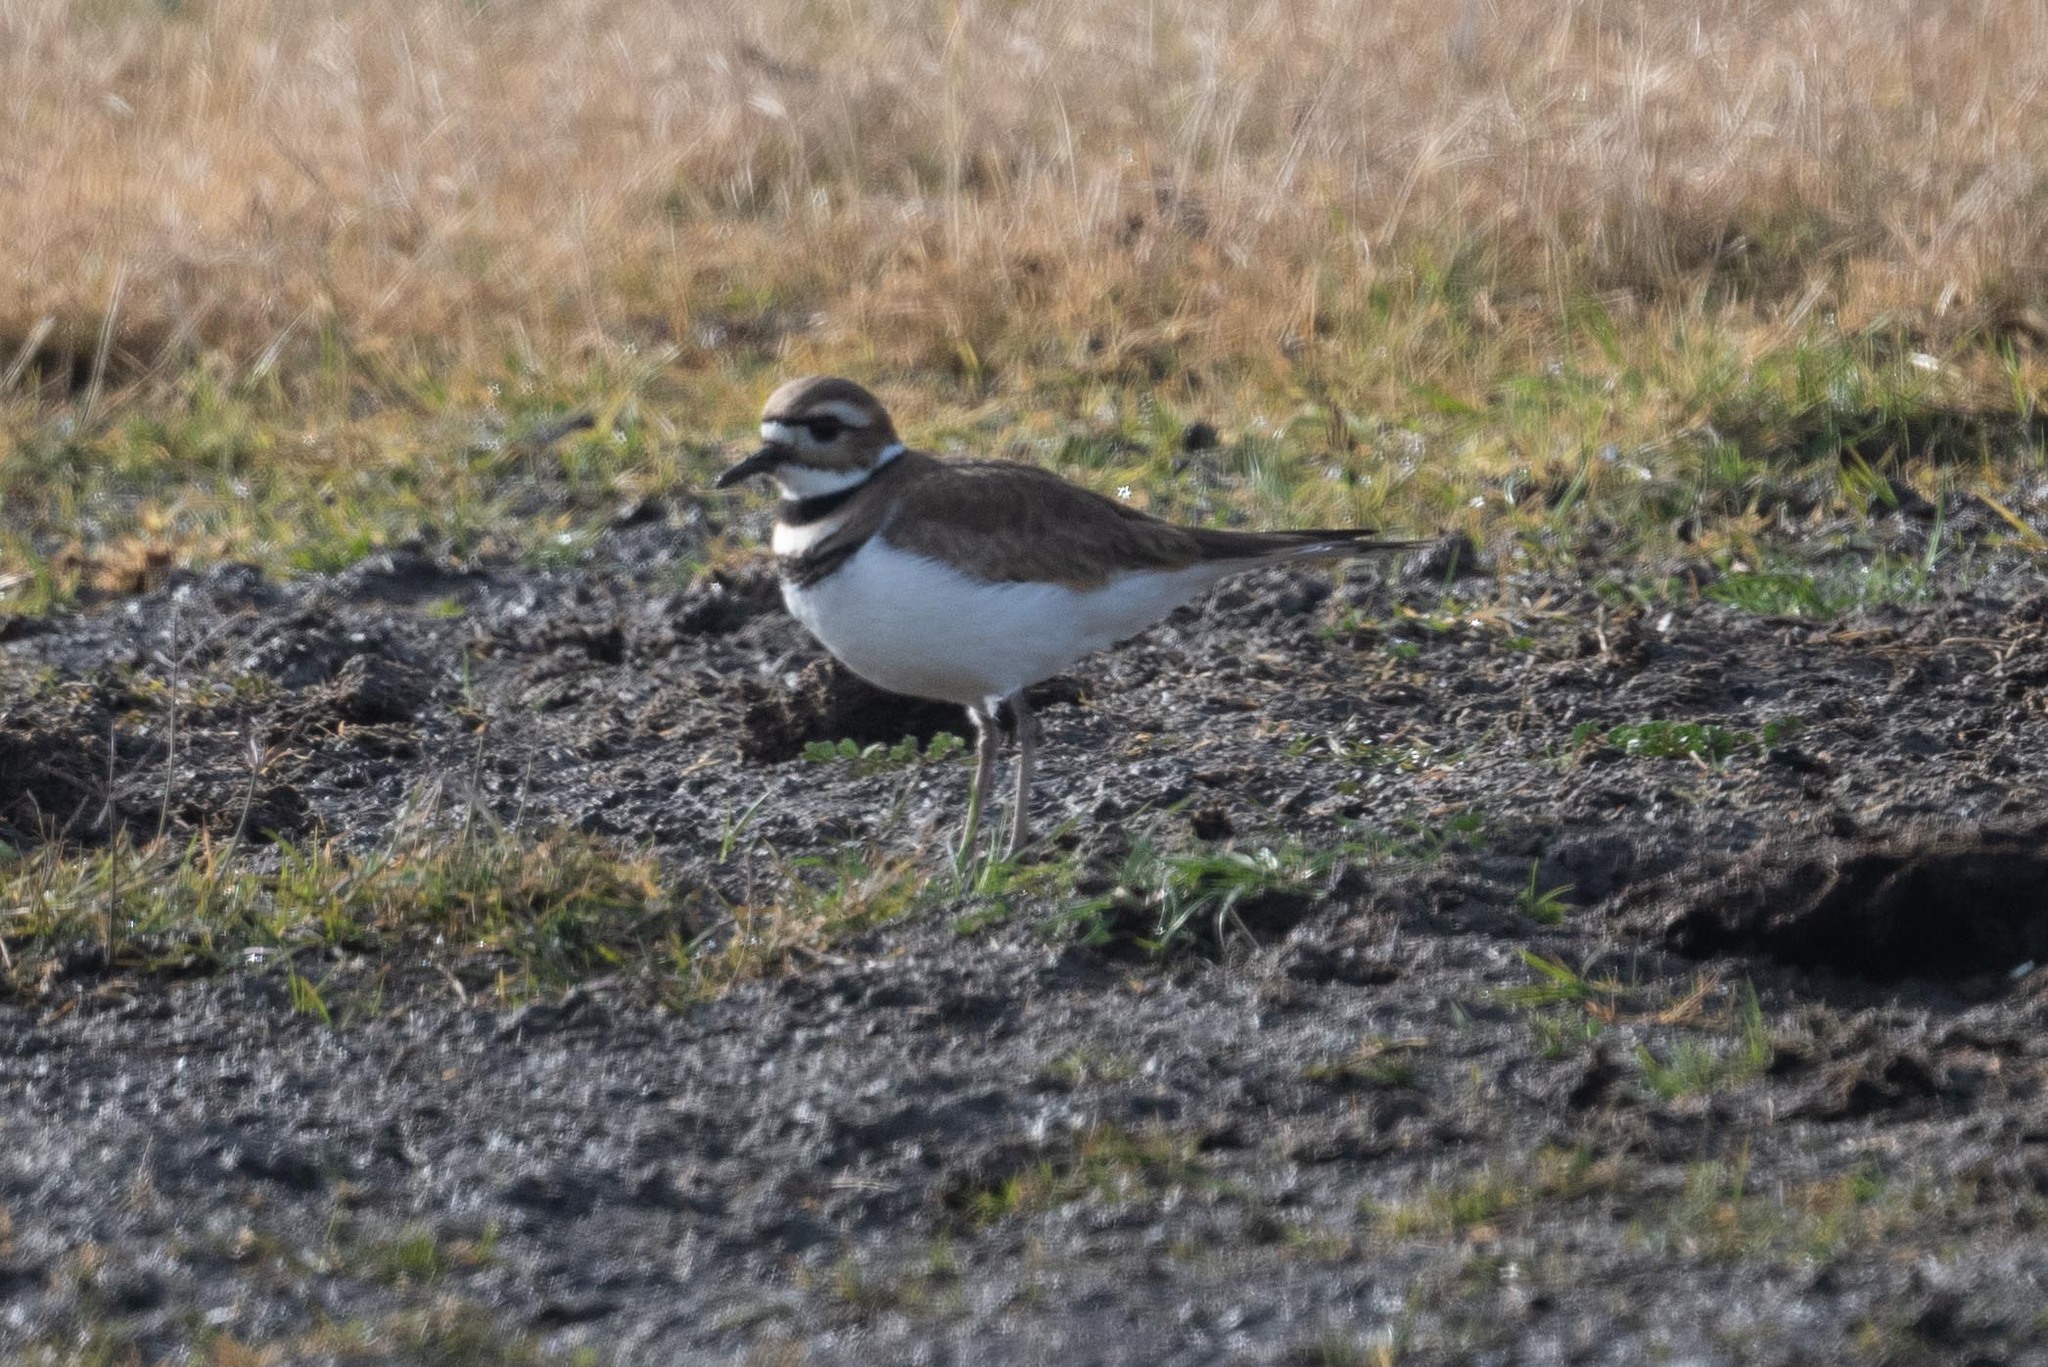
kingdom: Animalia
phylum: Chordata
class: Aves
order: Charadriiformes
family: Charadriidae
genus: Charadrius
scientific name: Charadrius vociferus
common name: Killdeer
